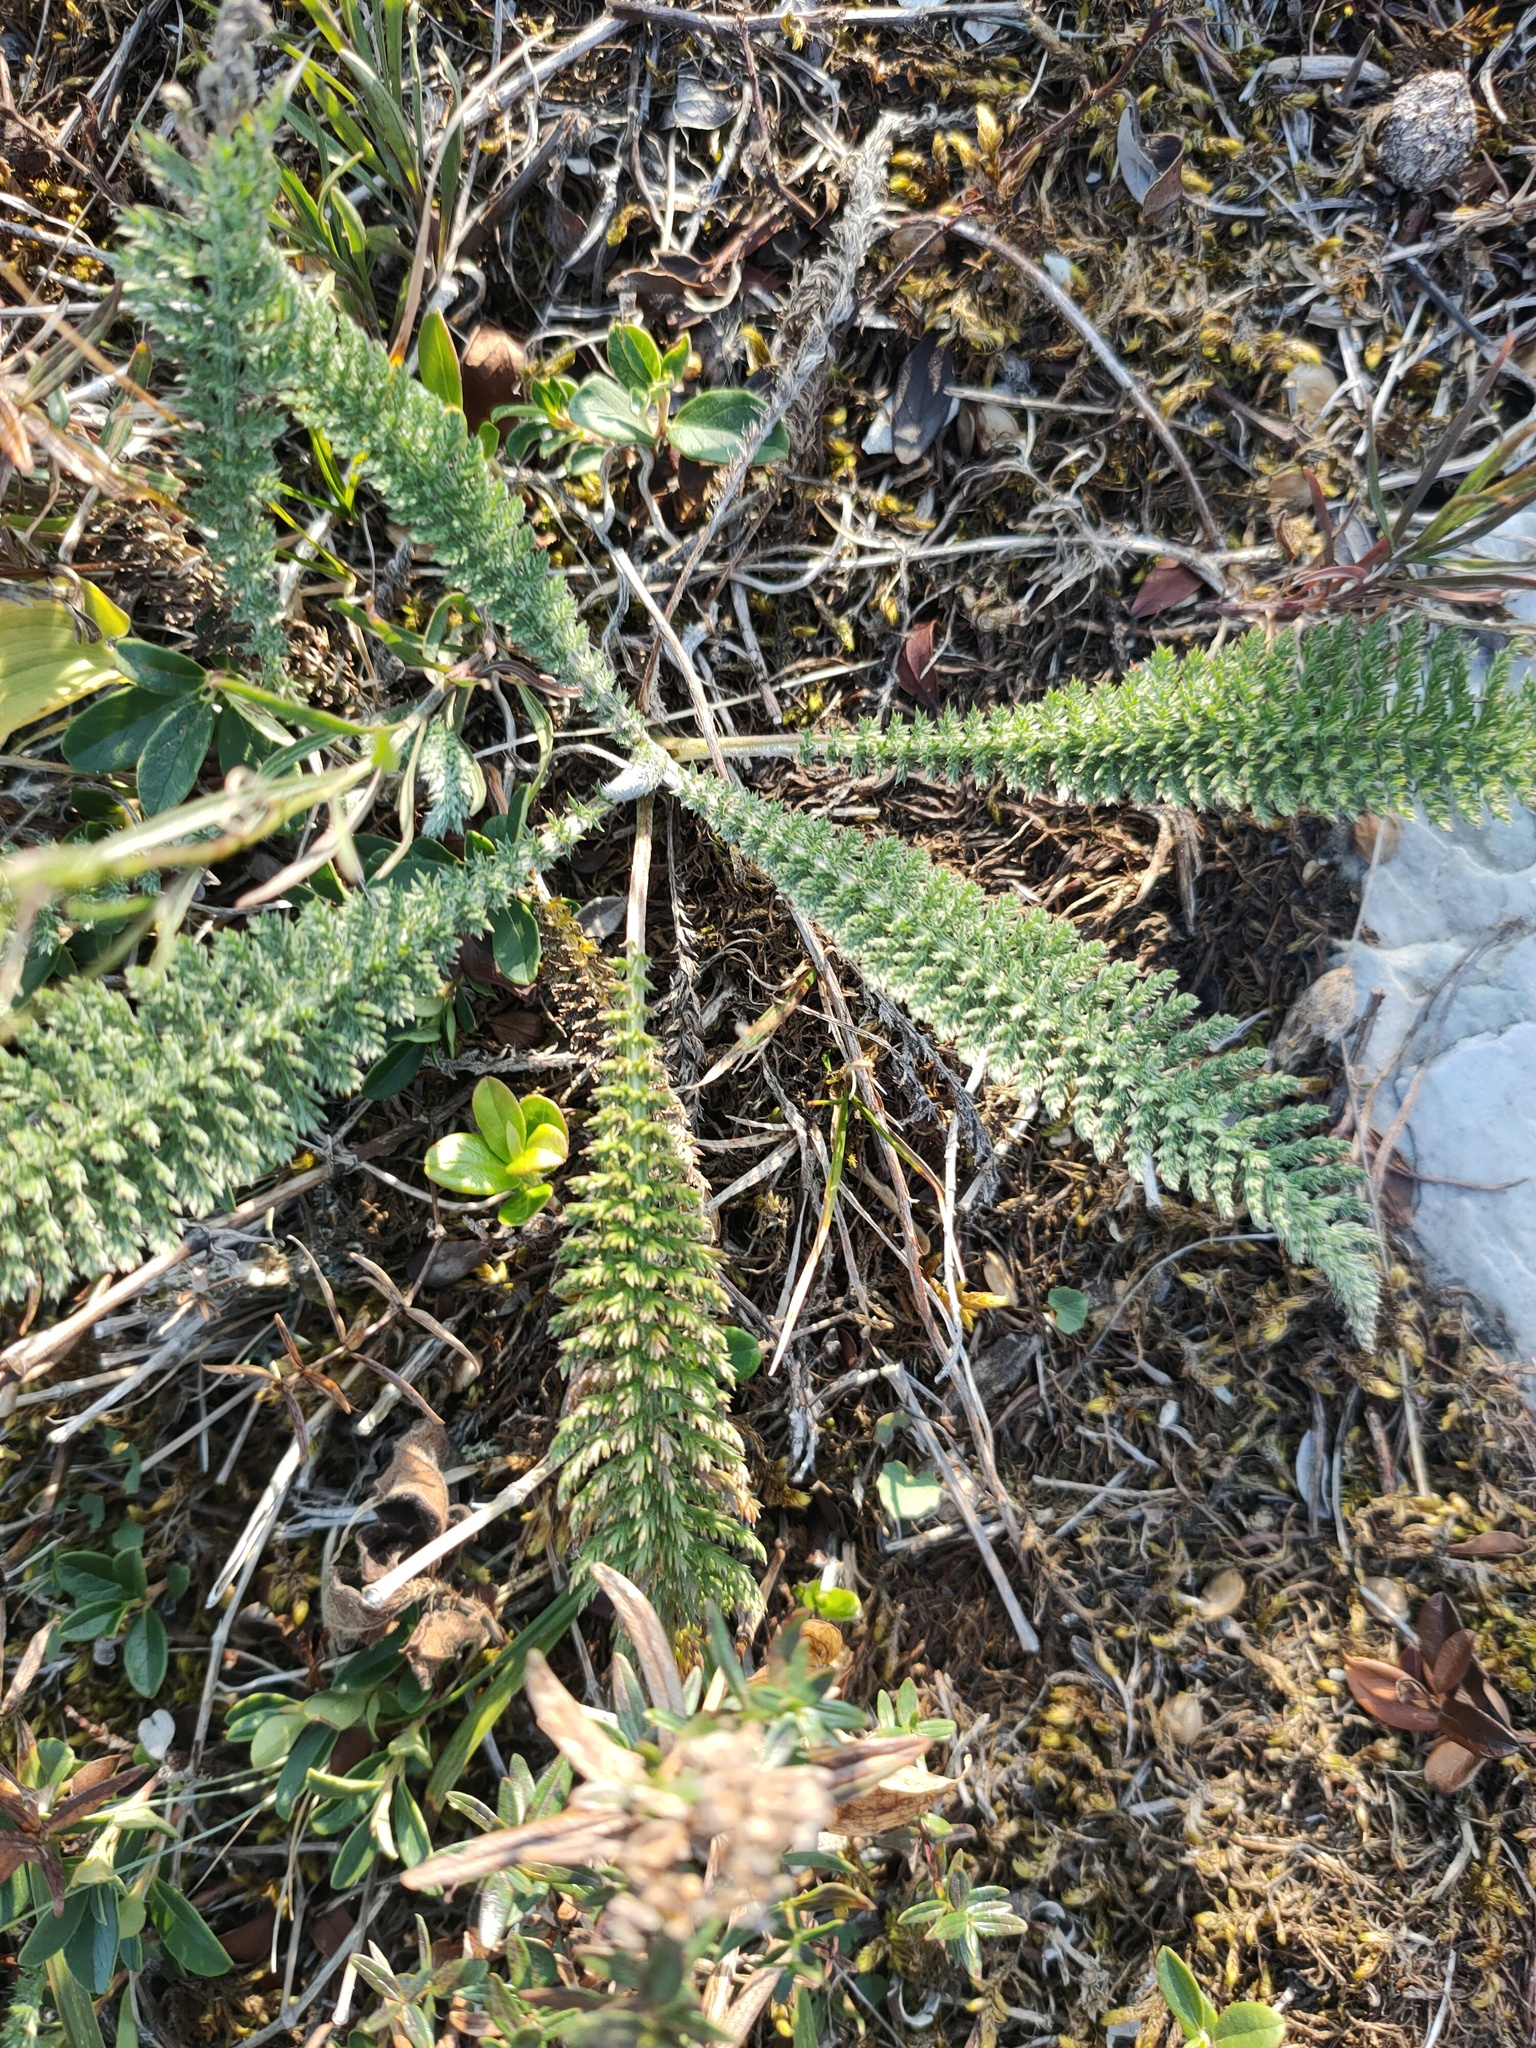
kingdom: Plantae
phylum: Tracheophyta
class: Magnoliopsida
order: Asterales
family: Asteraceae
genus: Achillea
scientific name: Achillea
